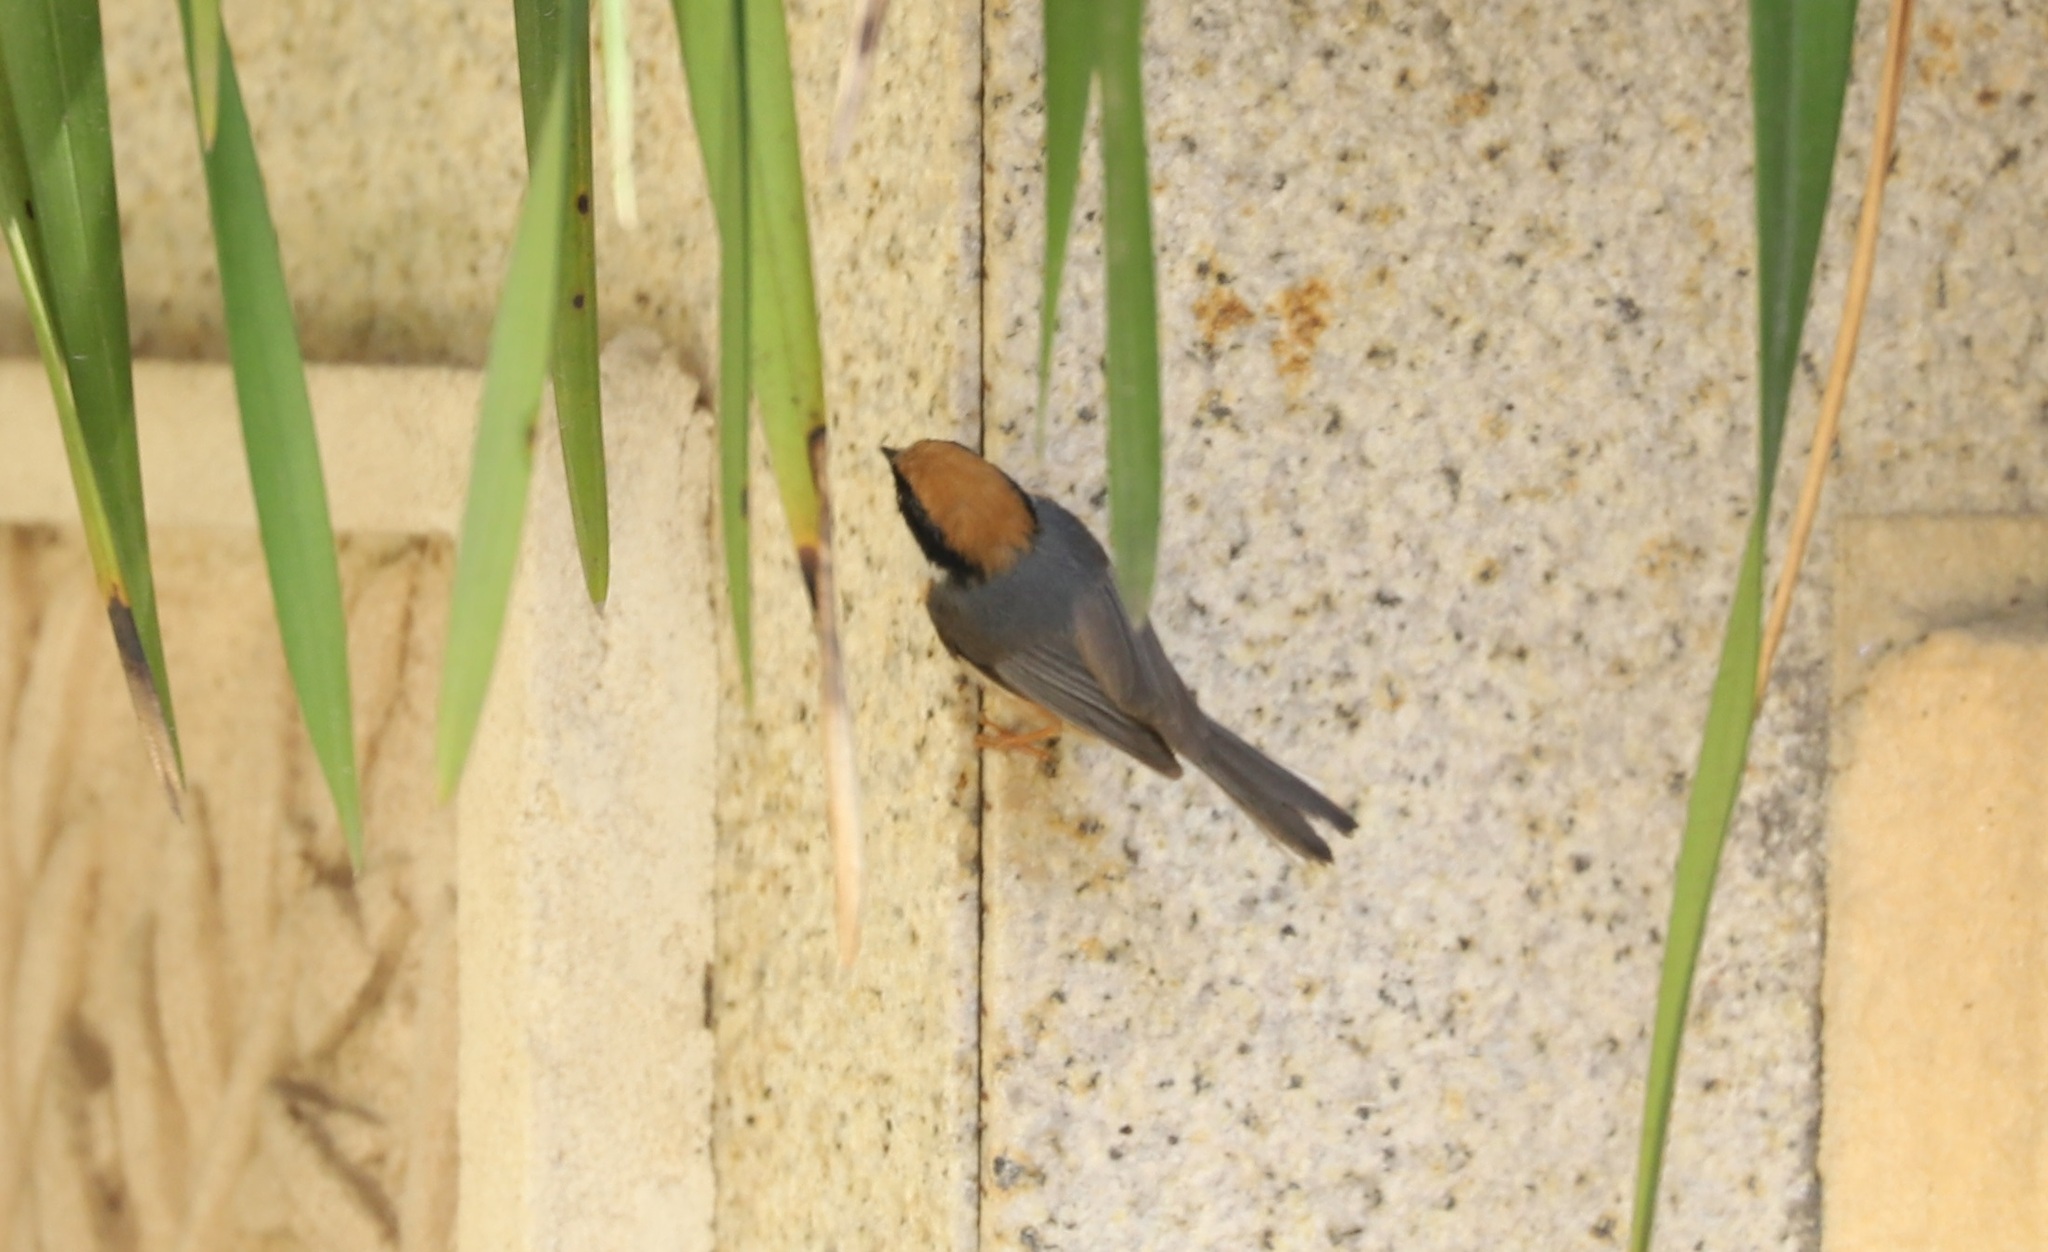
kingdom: Animalia
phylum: Chordata
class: Aves
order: Passeriformes
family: Aegithalidae
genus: Aegithalos
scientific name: Aegithalos concinnus
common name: Black-throated bushtit
